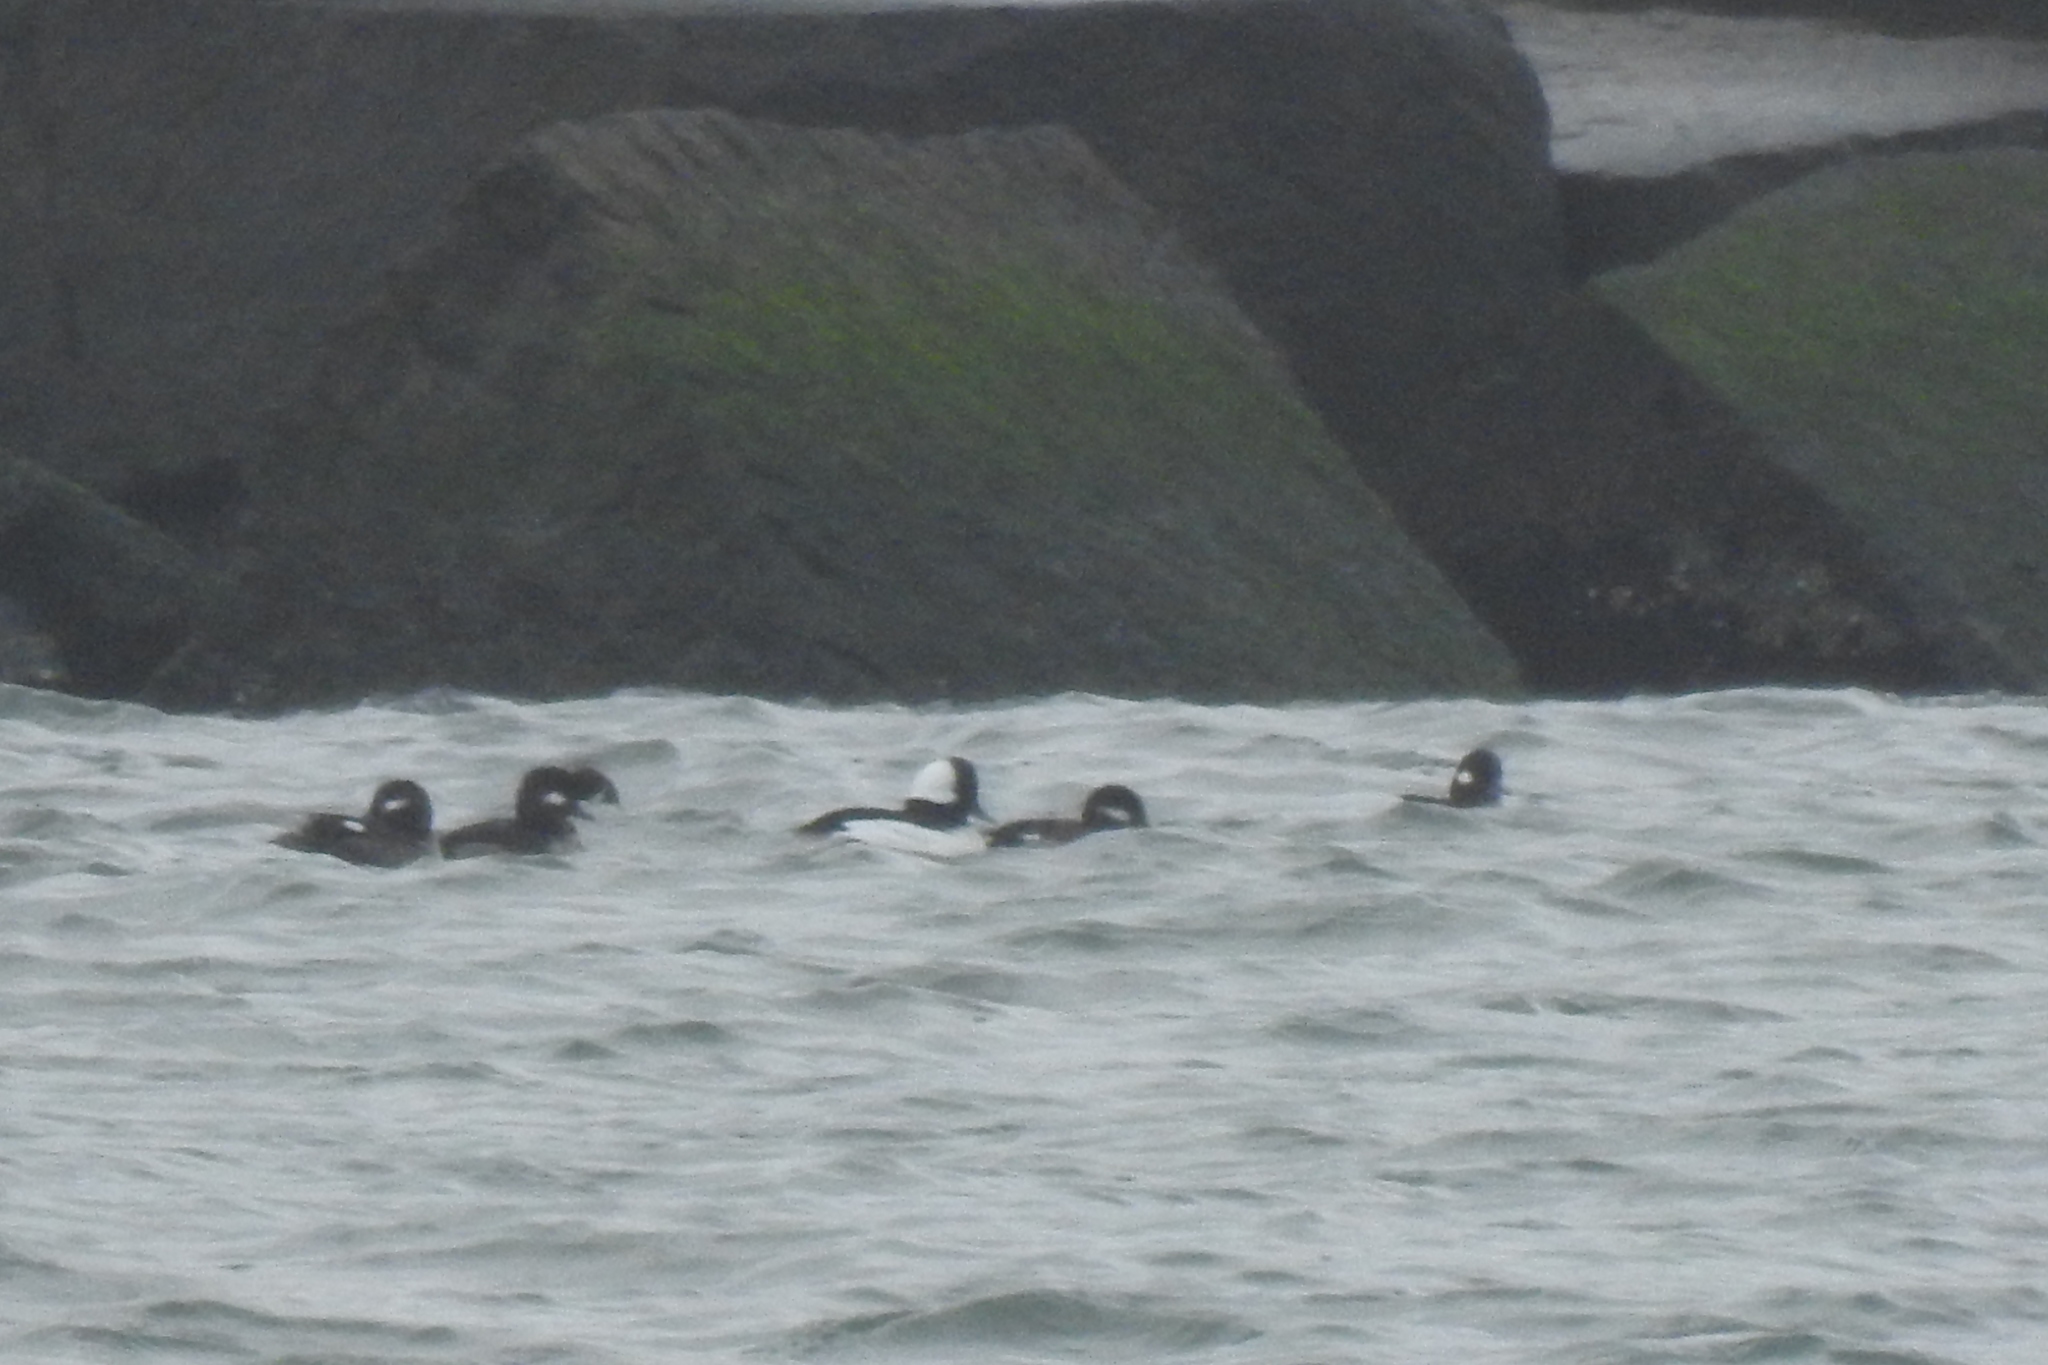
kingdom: Animalia
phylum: Chordata
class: Aves
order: Anseriformes
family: Anatidae
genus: Bucephala
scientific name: Bucephala albeola
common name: Bufflehead
